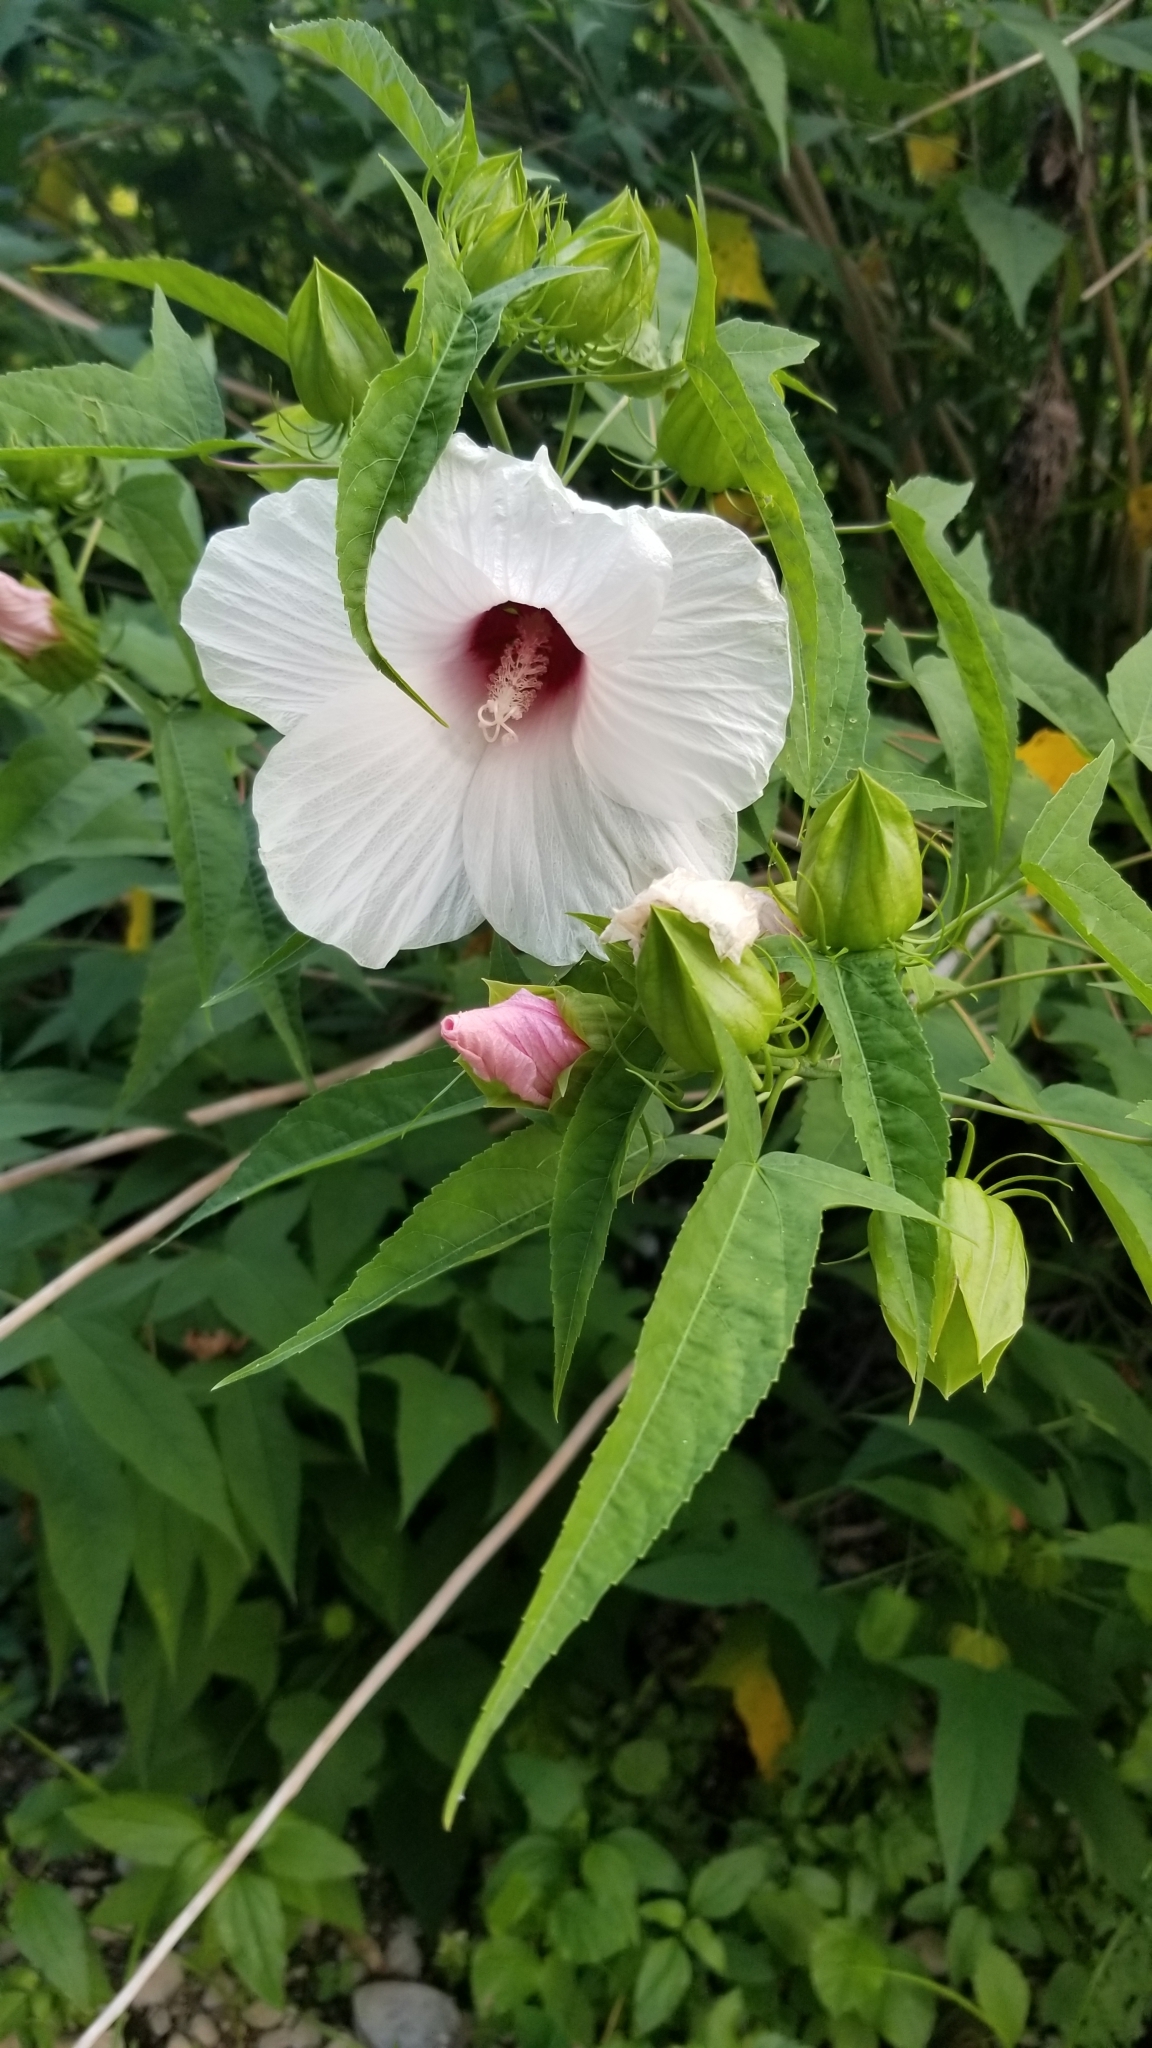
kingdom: Plantae
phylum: Tracheophyta
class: Magnoliopsida
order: Malvales
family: Malvaceae
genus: Hibiscus
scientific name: Hibiscus laevis
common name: Scarlet rose-mallow
